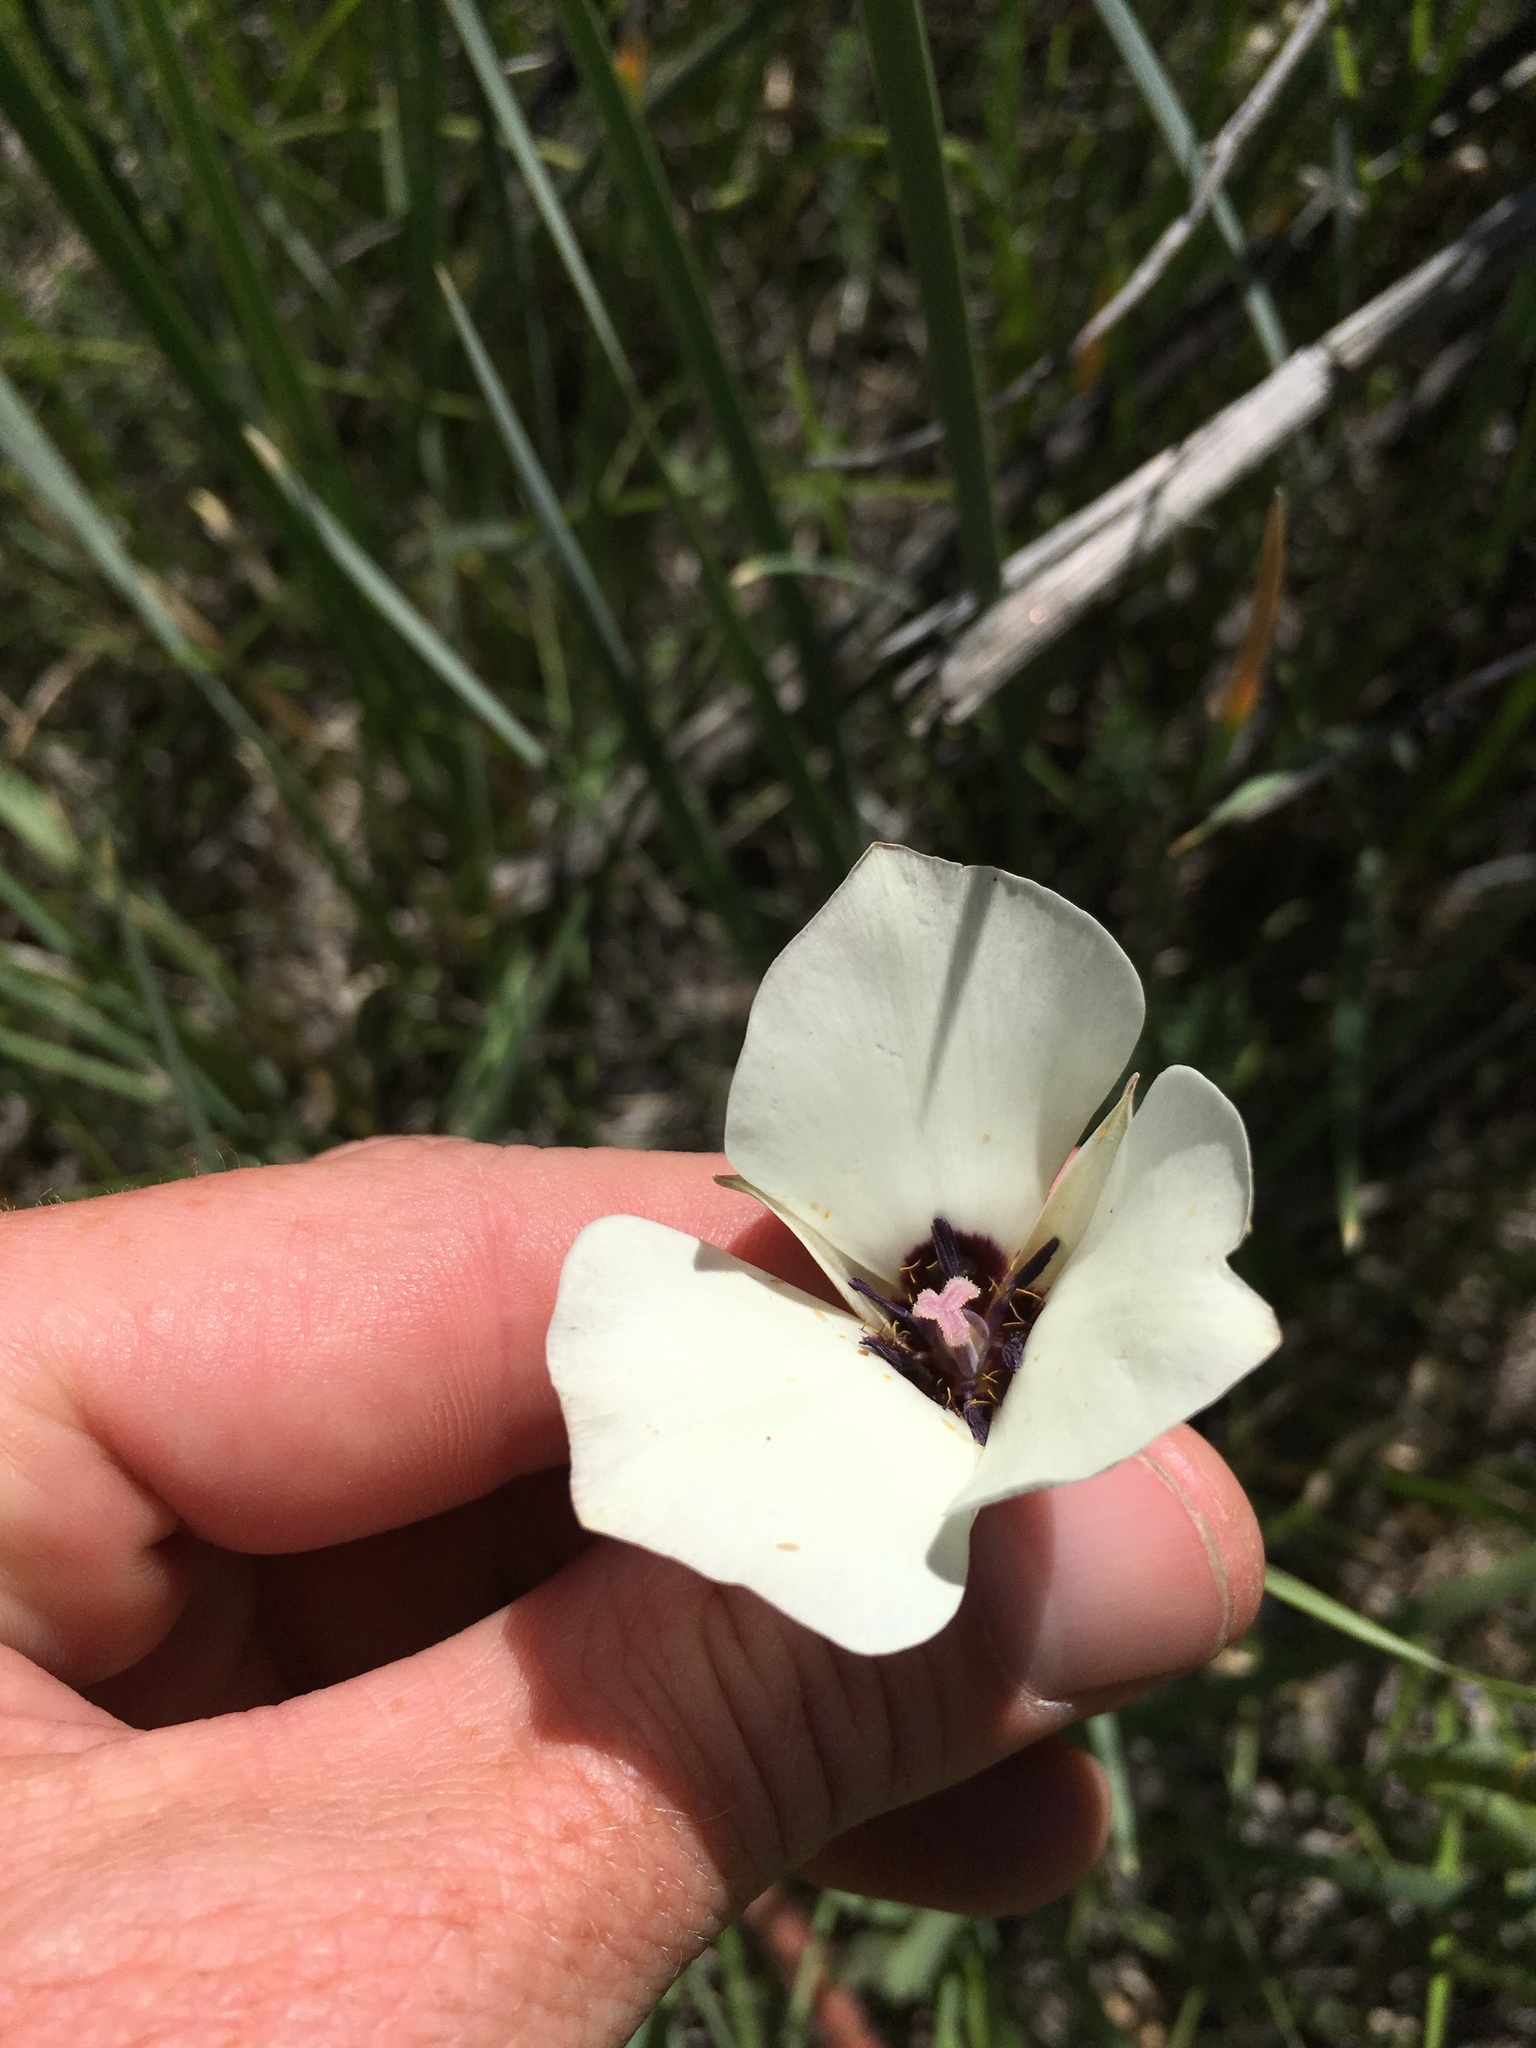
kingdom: Plantae
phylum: Tracheophyta
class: Liliopsida
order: Liliales
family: Liliaceae
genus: Calochortus
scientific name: Calochortus bruneaunis
